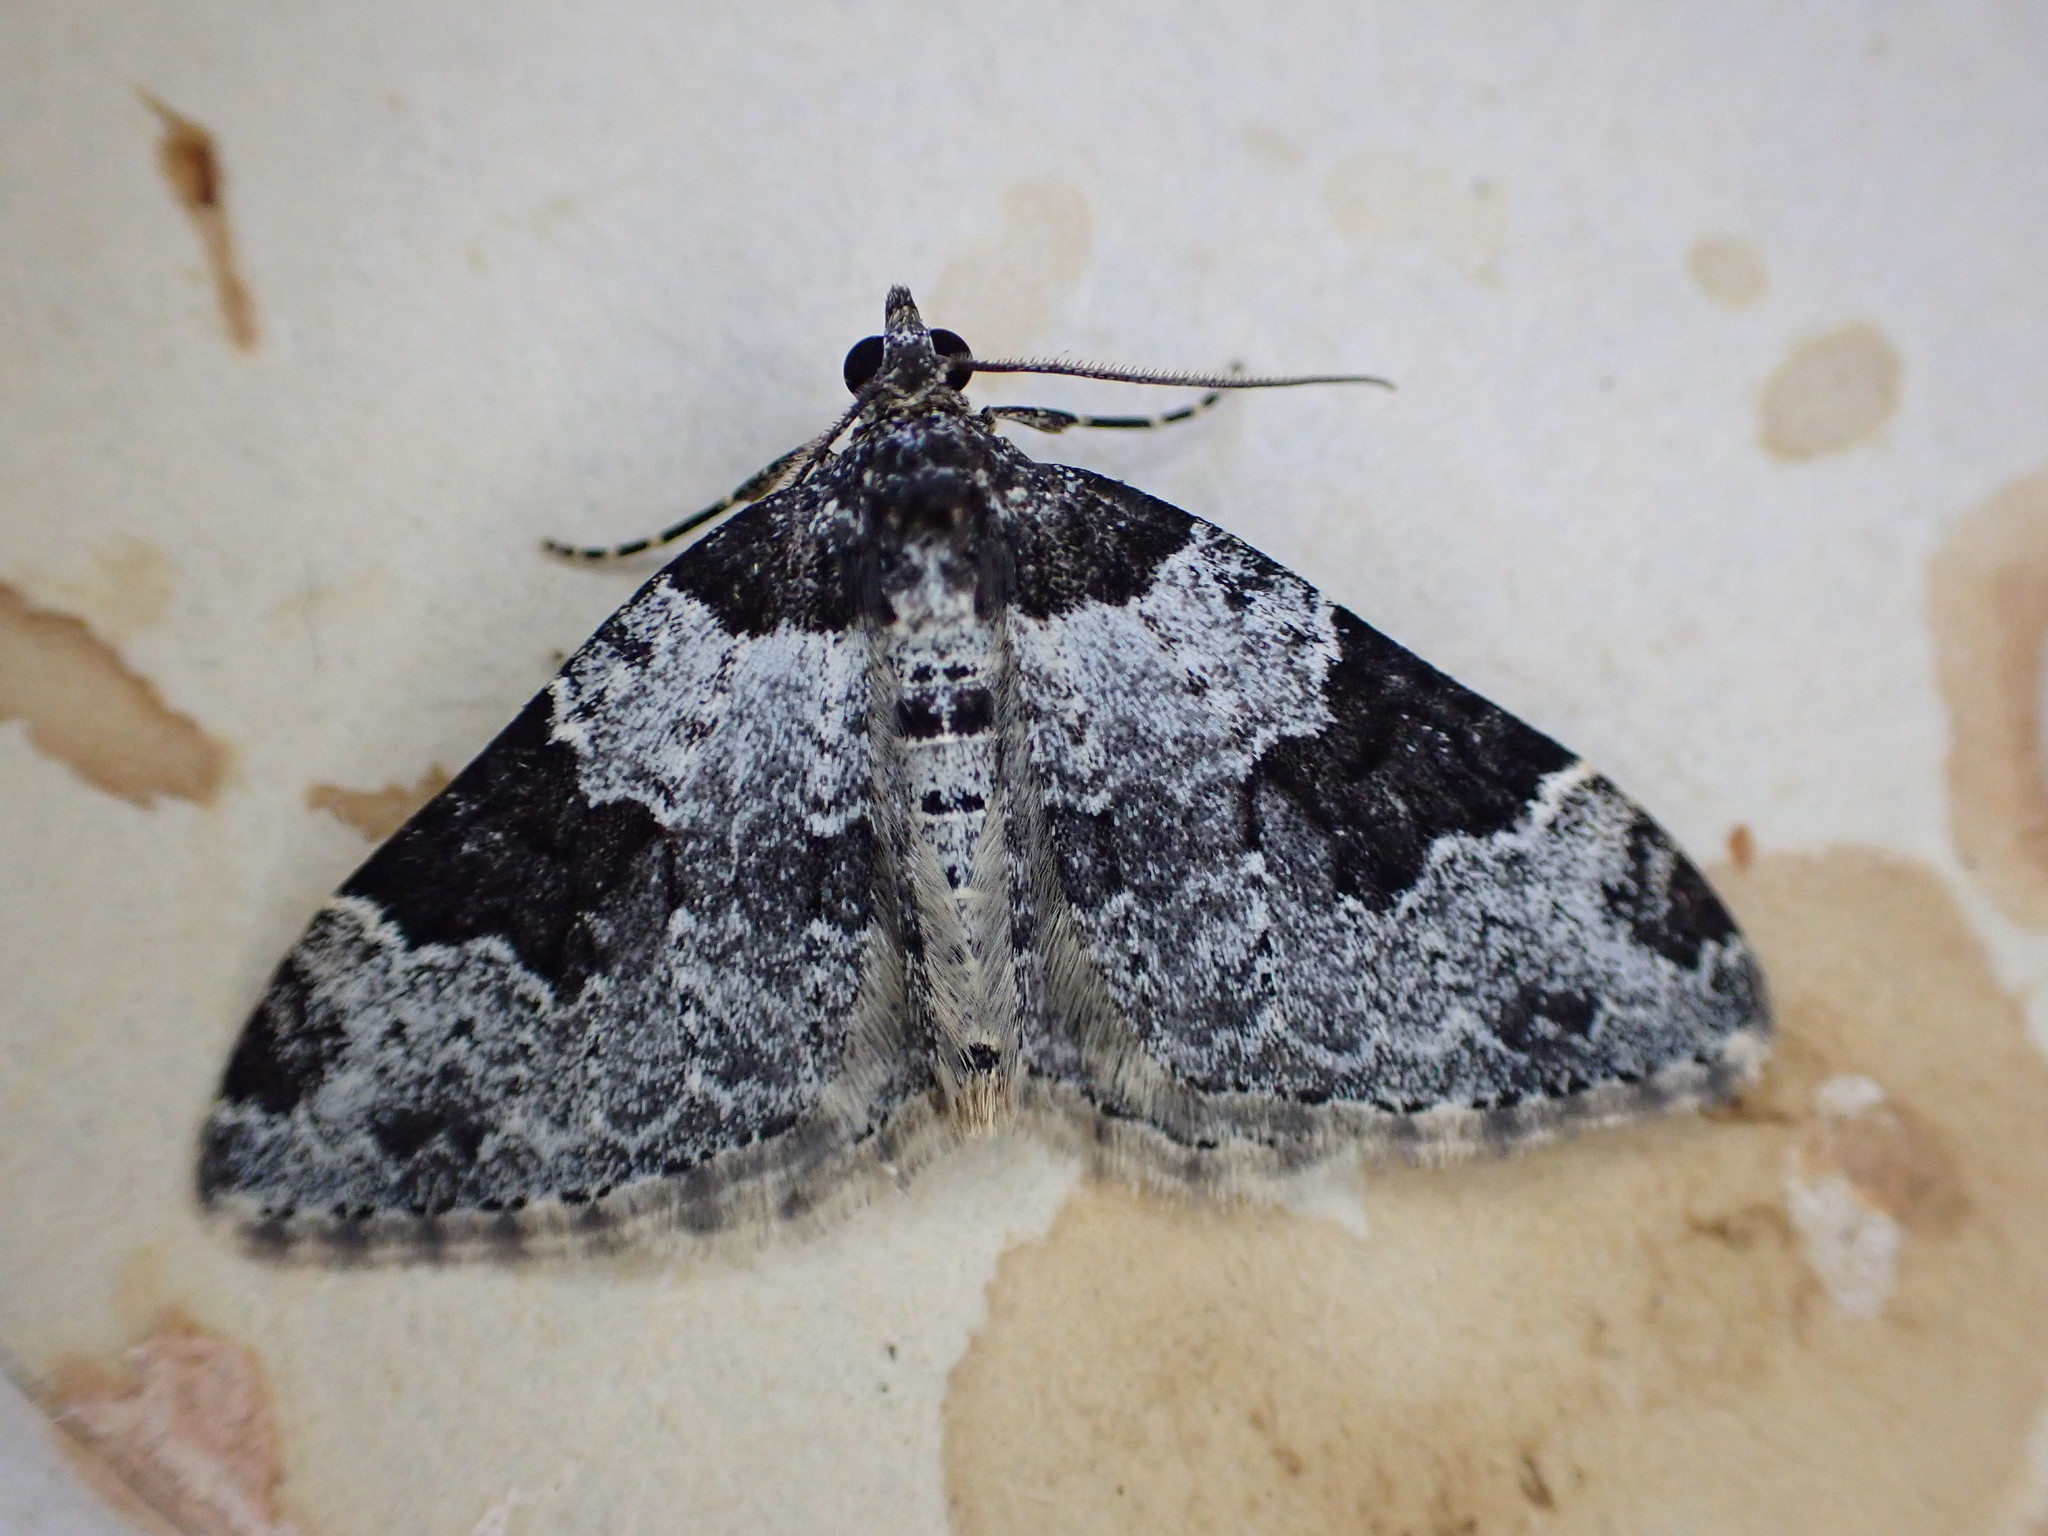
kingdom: Animalia
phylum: Arthropoda
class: Insecta
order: Lepidoptera
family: Geometridae
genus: Xanthorhoe
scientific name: Xanthorhoe fluctuata
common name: Garden carpet
